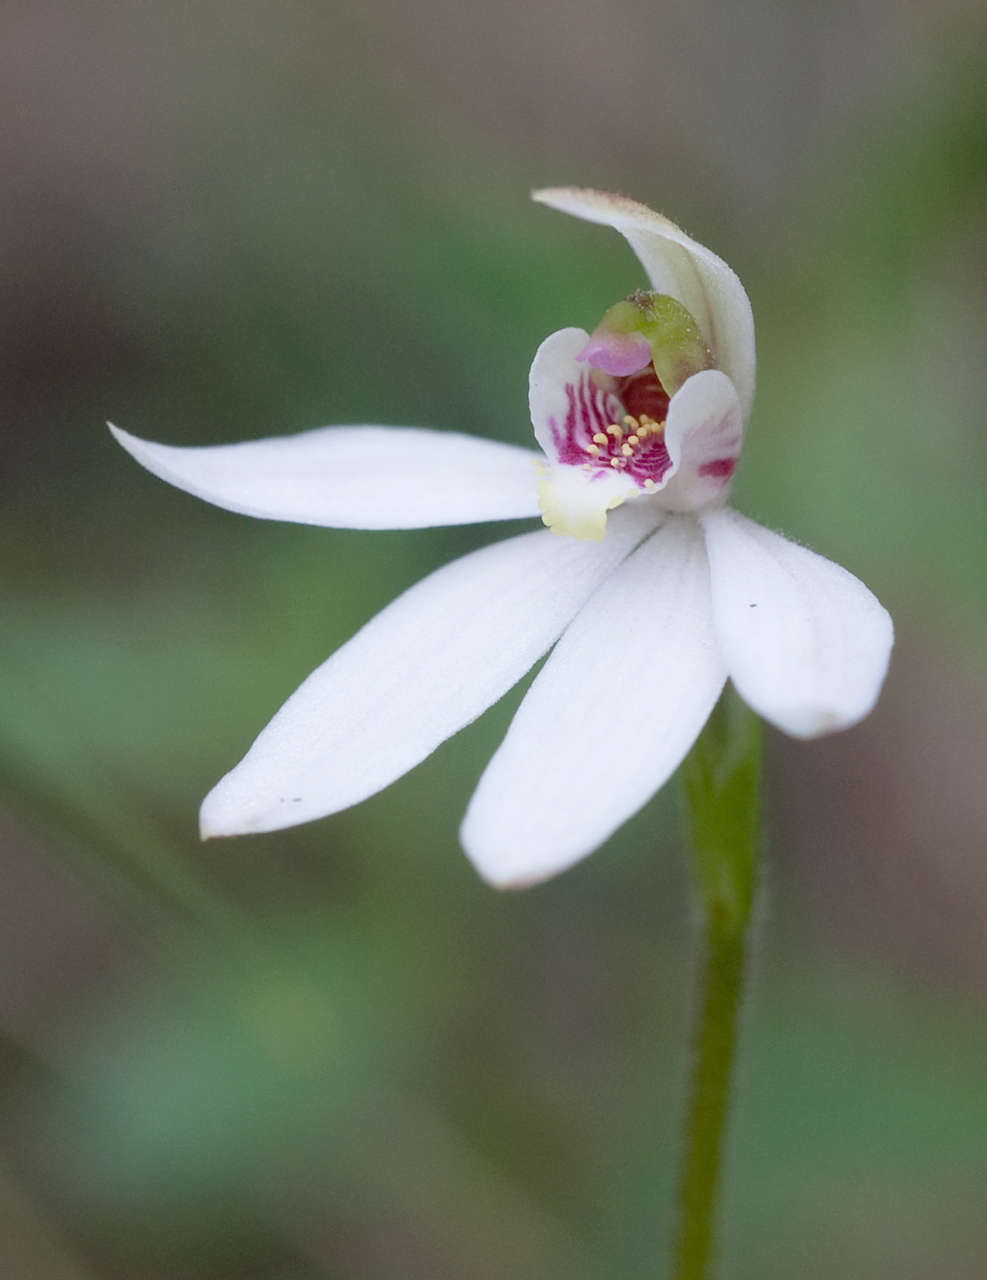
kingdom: Plantae
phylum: Tracheophyta
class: Liliopsida
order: Asparagales
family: Orchidaceae
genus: Caladenia
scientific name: Caladenia carnea
